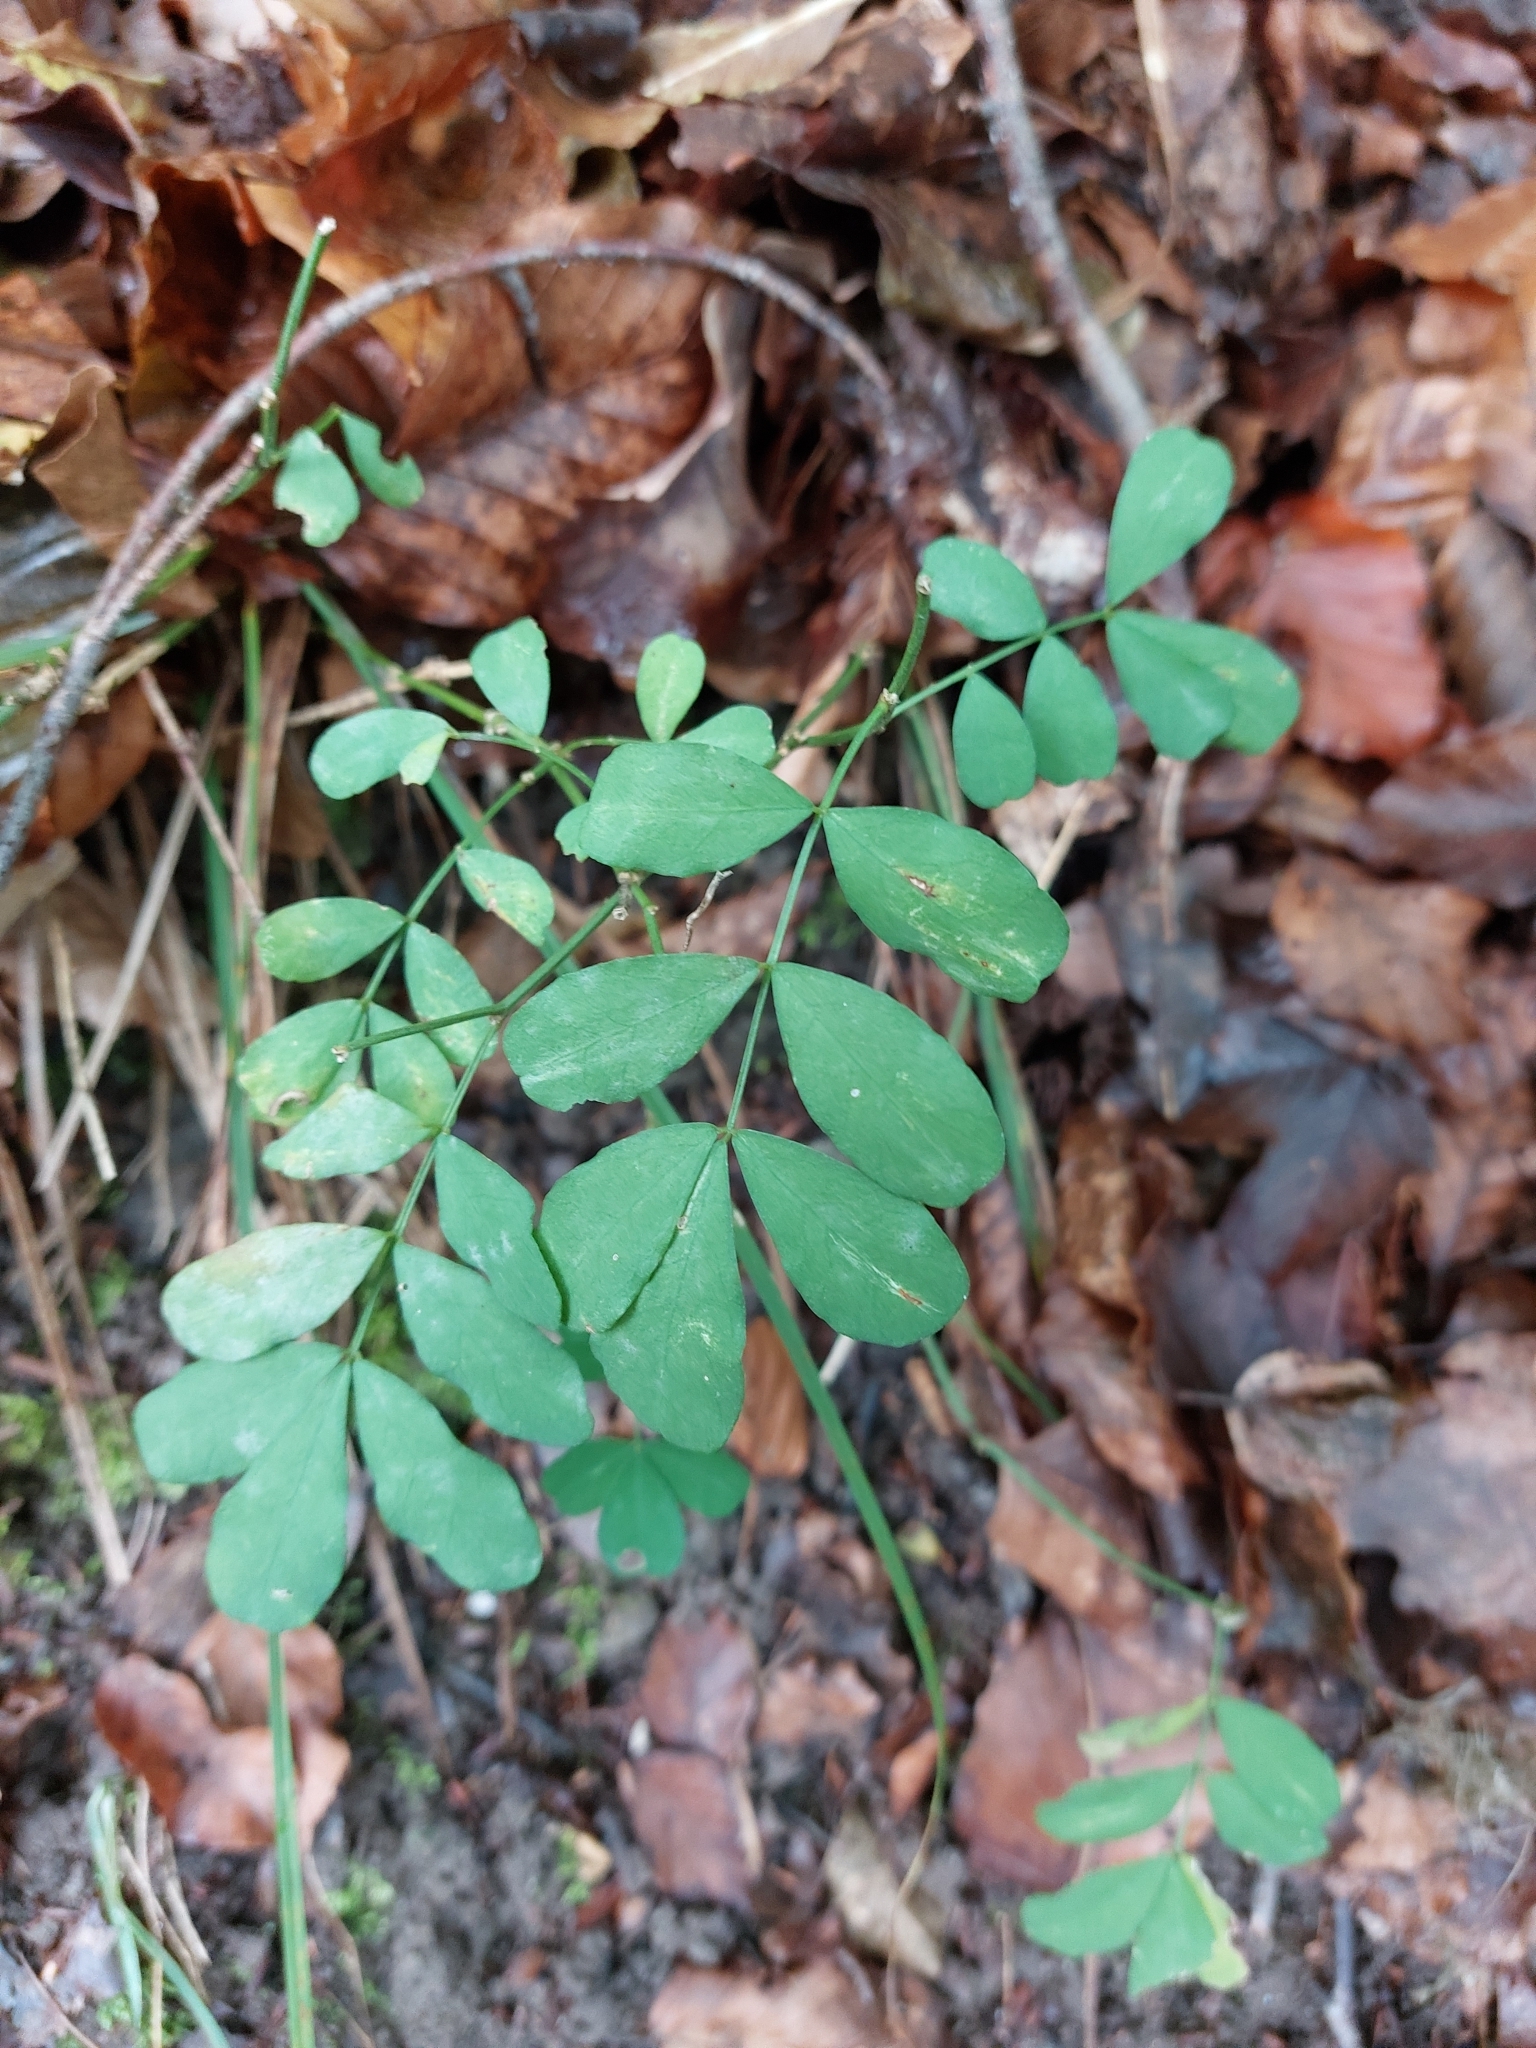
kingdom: Plantae
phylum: Tracheophyta
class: Magnoliopsida
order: Fabales
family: Fabaceae
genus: Hippocrepis
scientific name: Hippocrepis emerus
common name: Scorpion senna
